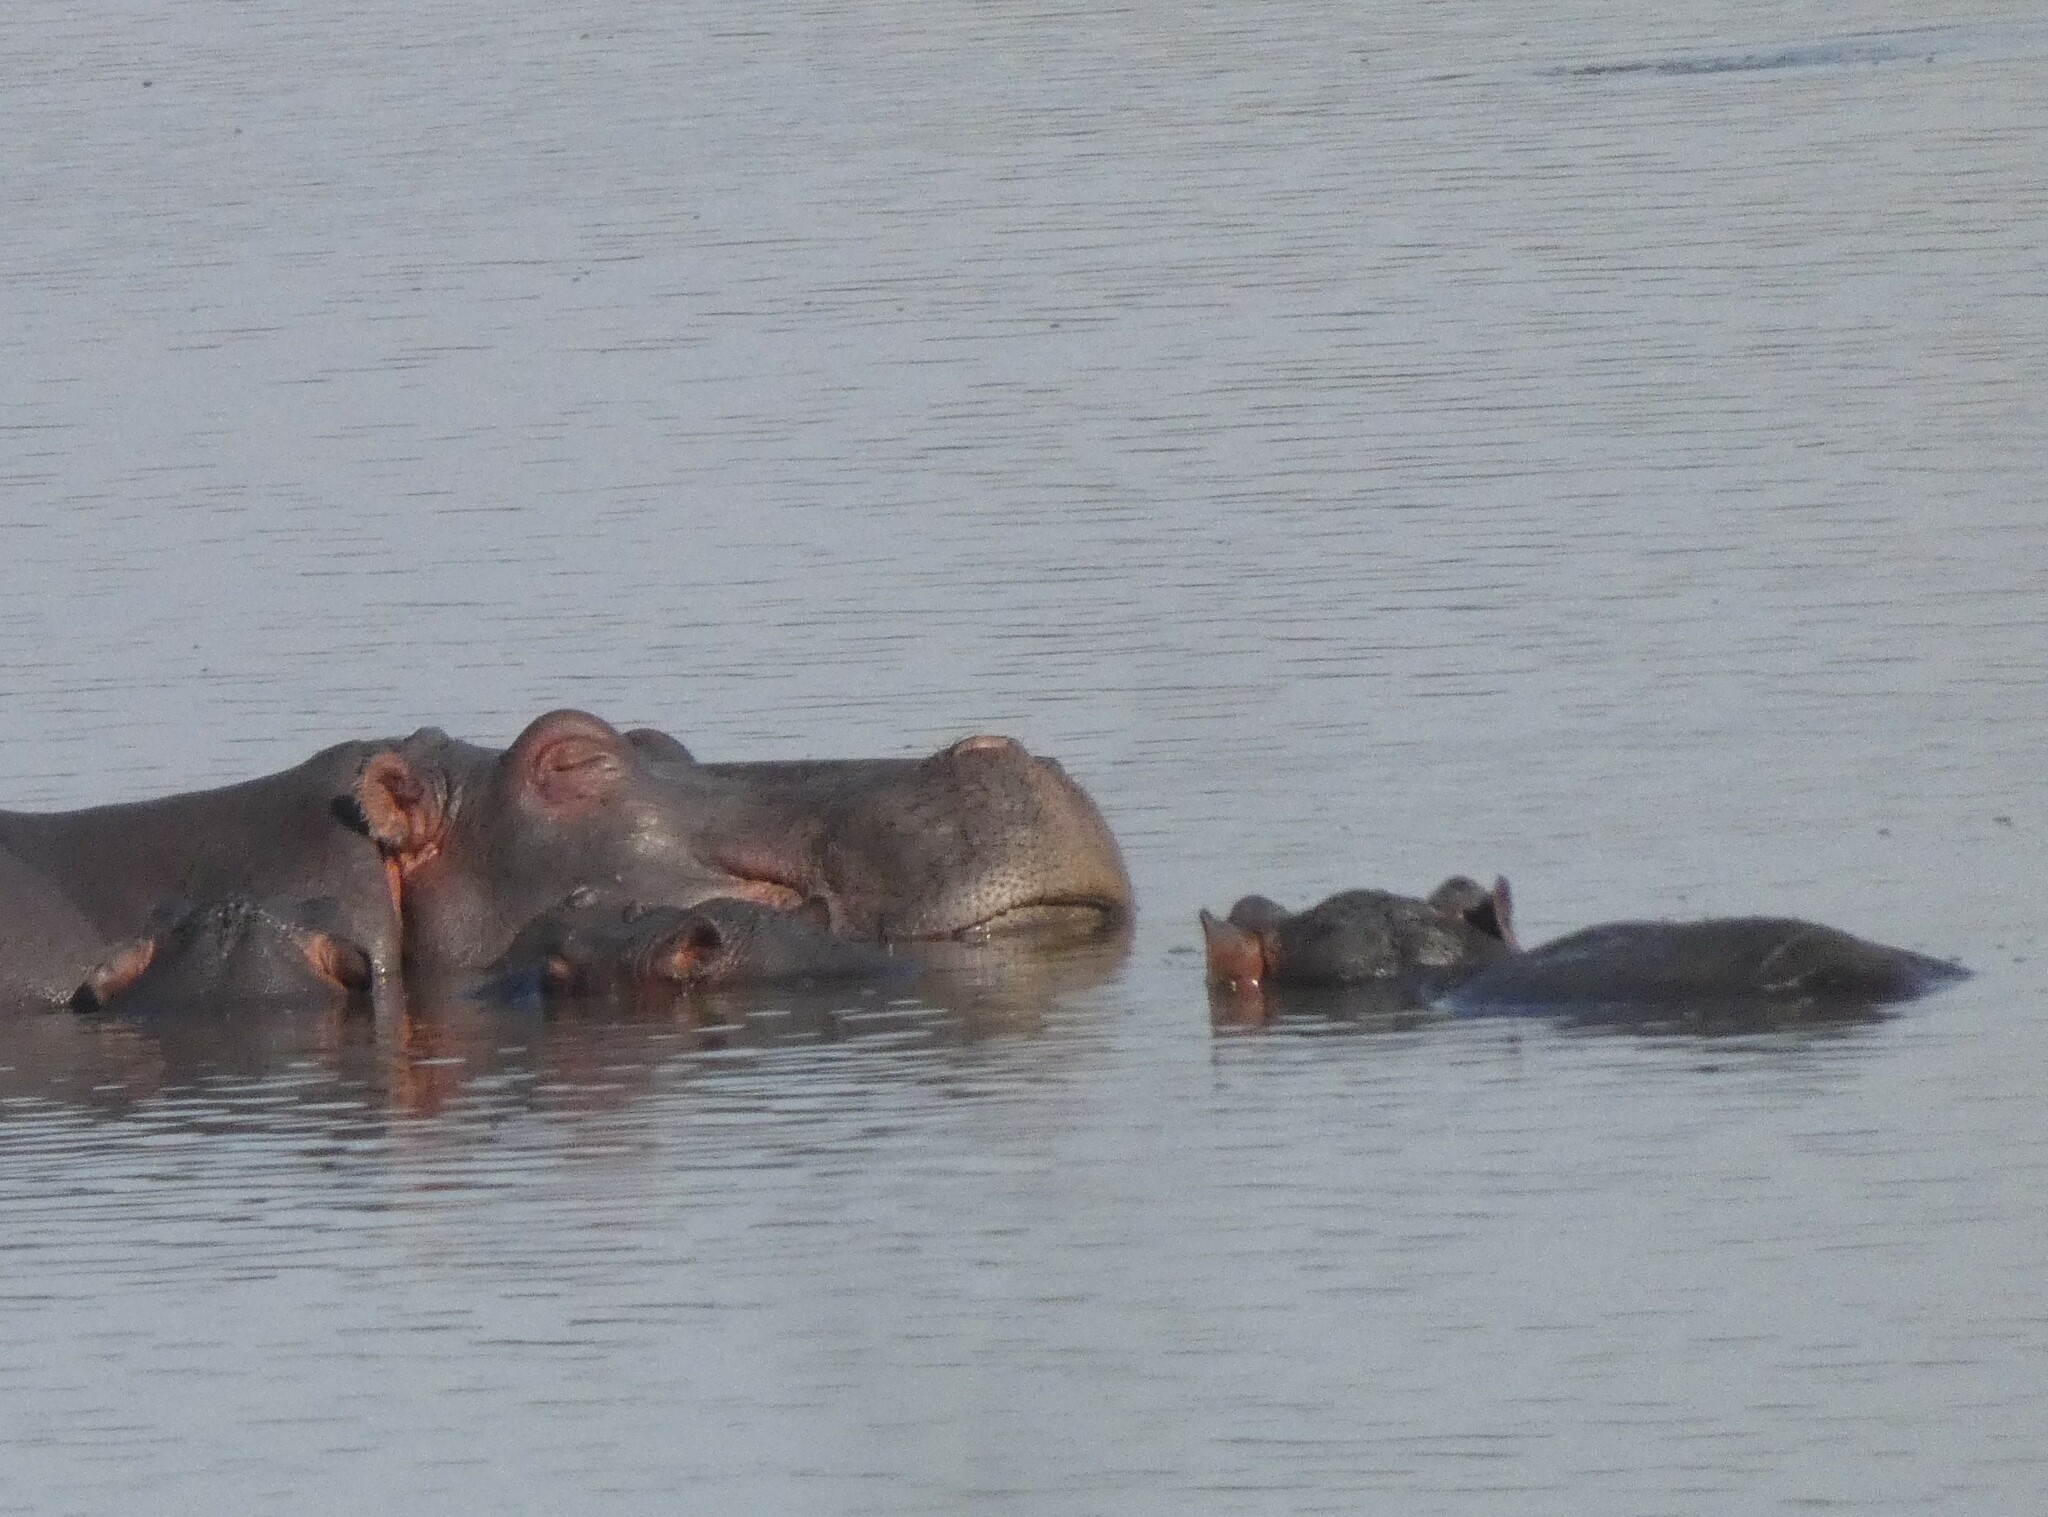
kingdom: Animalia
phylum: Chordata
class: Mammalia
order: Artiodactyla
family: Hippopotamidae
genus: Hippopotamus
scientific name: Hippopotamus amphibius
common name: Common hippopotamus
